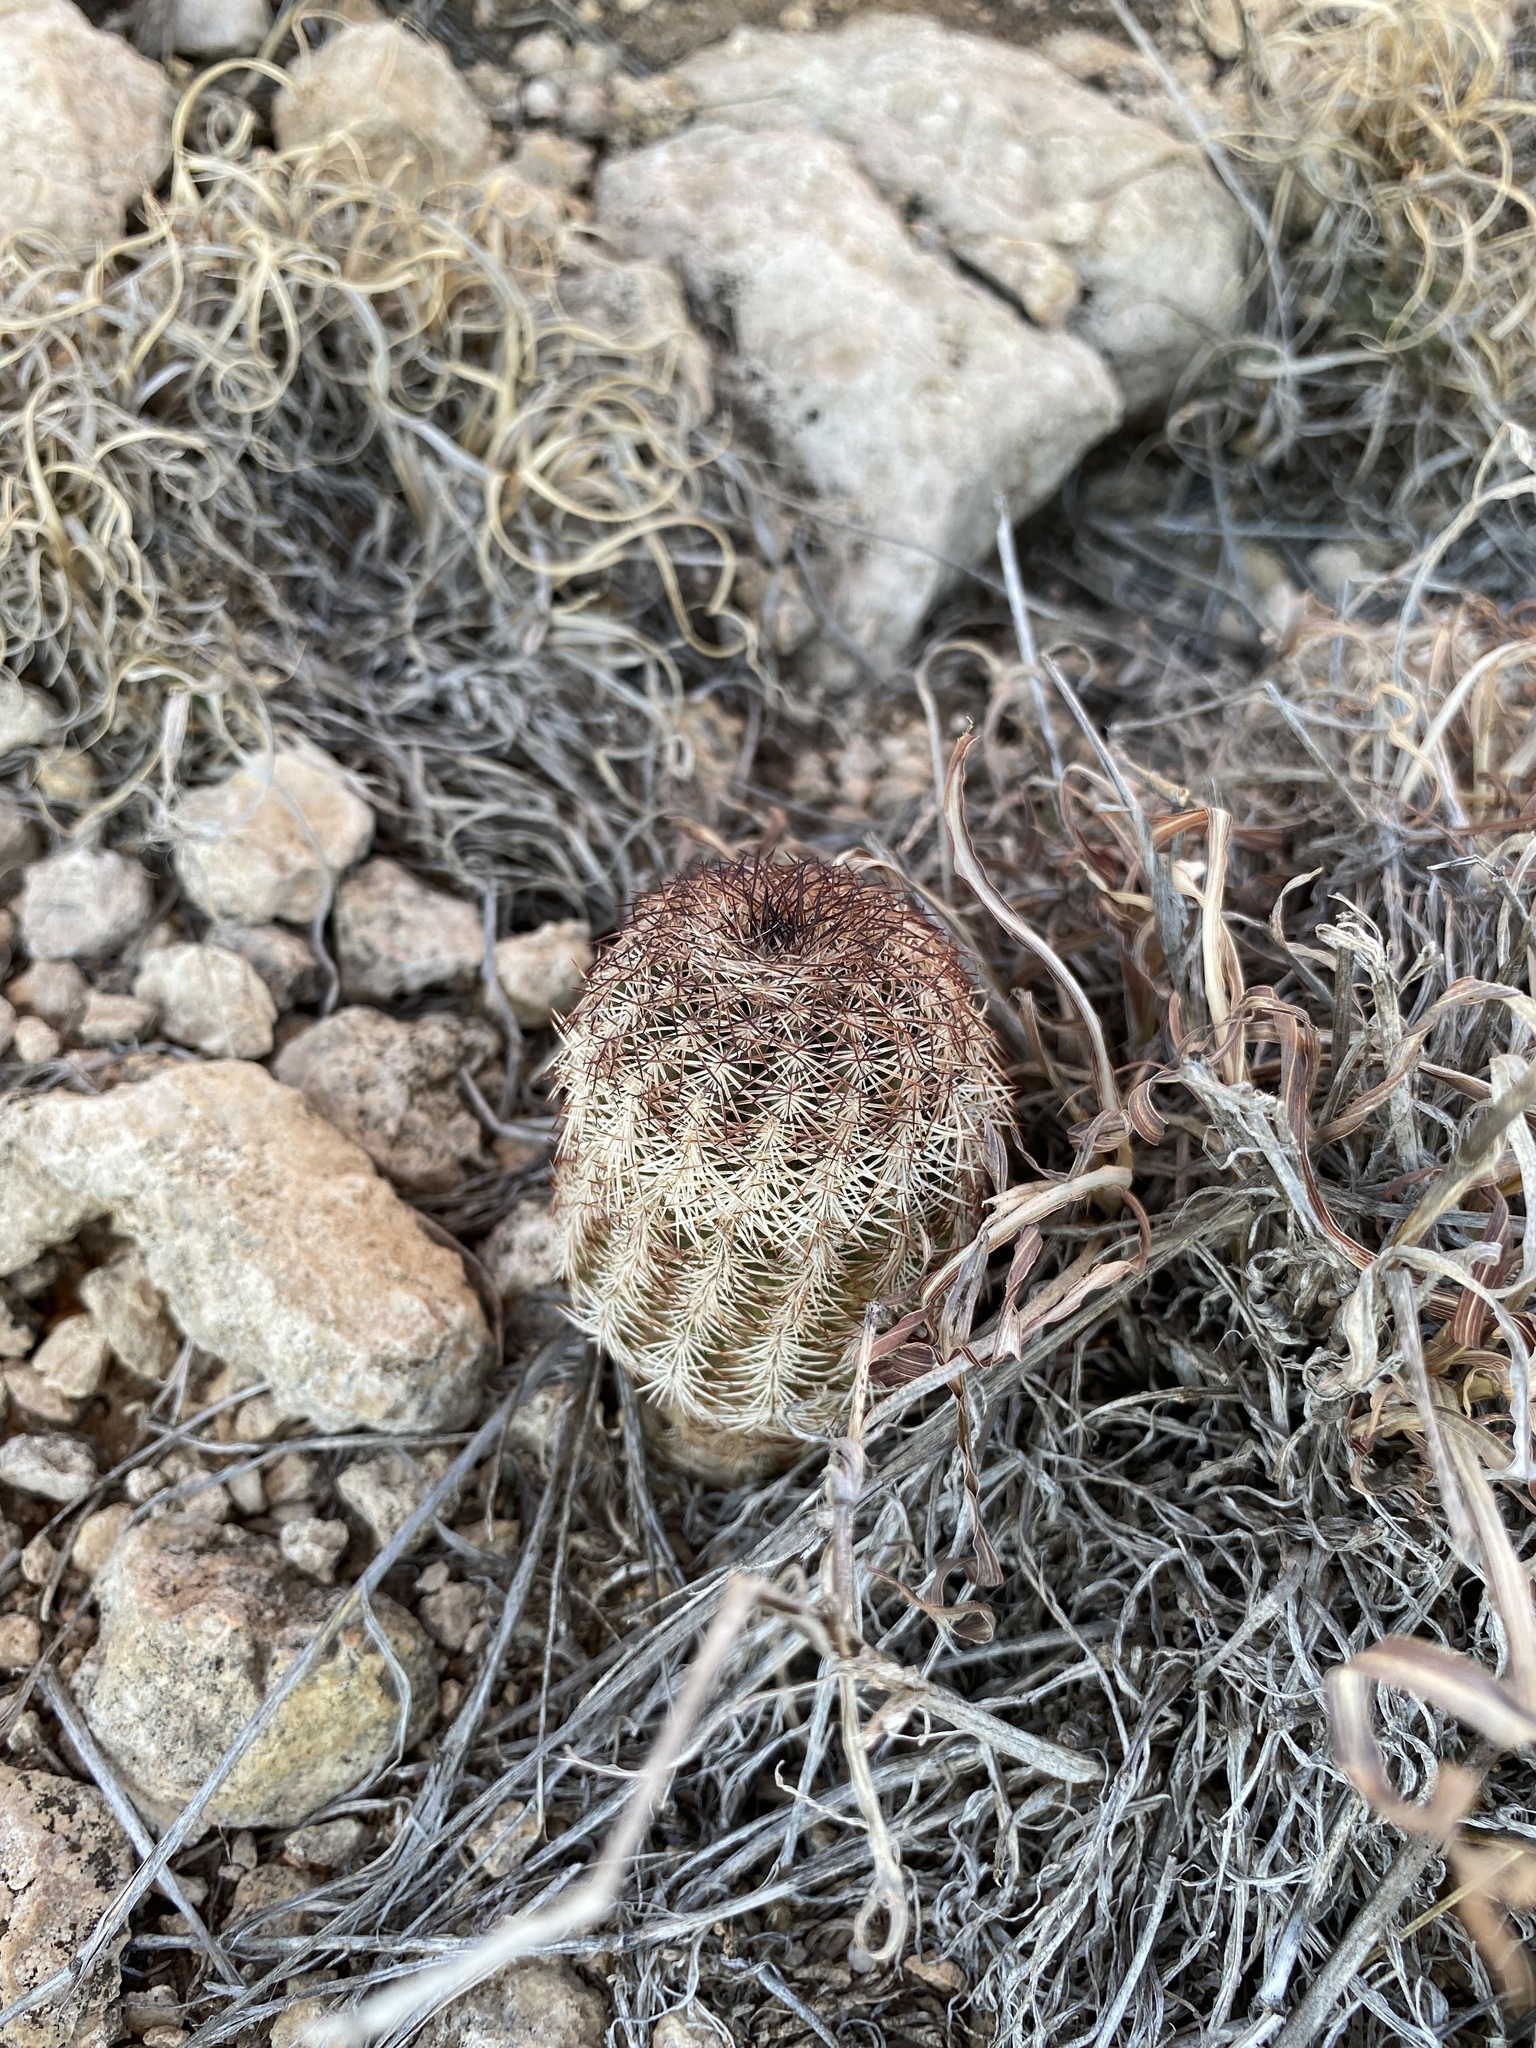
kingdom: Plantae
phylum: Tracheophyta
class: Magnoliopsida
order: Caryophyllales
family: Cactaceae
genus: Echinocereus
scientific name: Echinocereus reichenbachii
